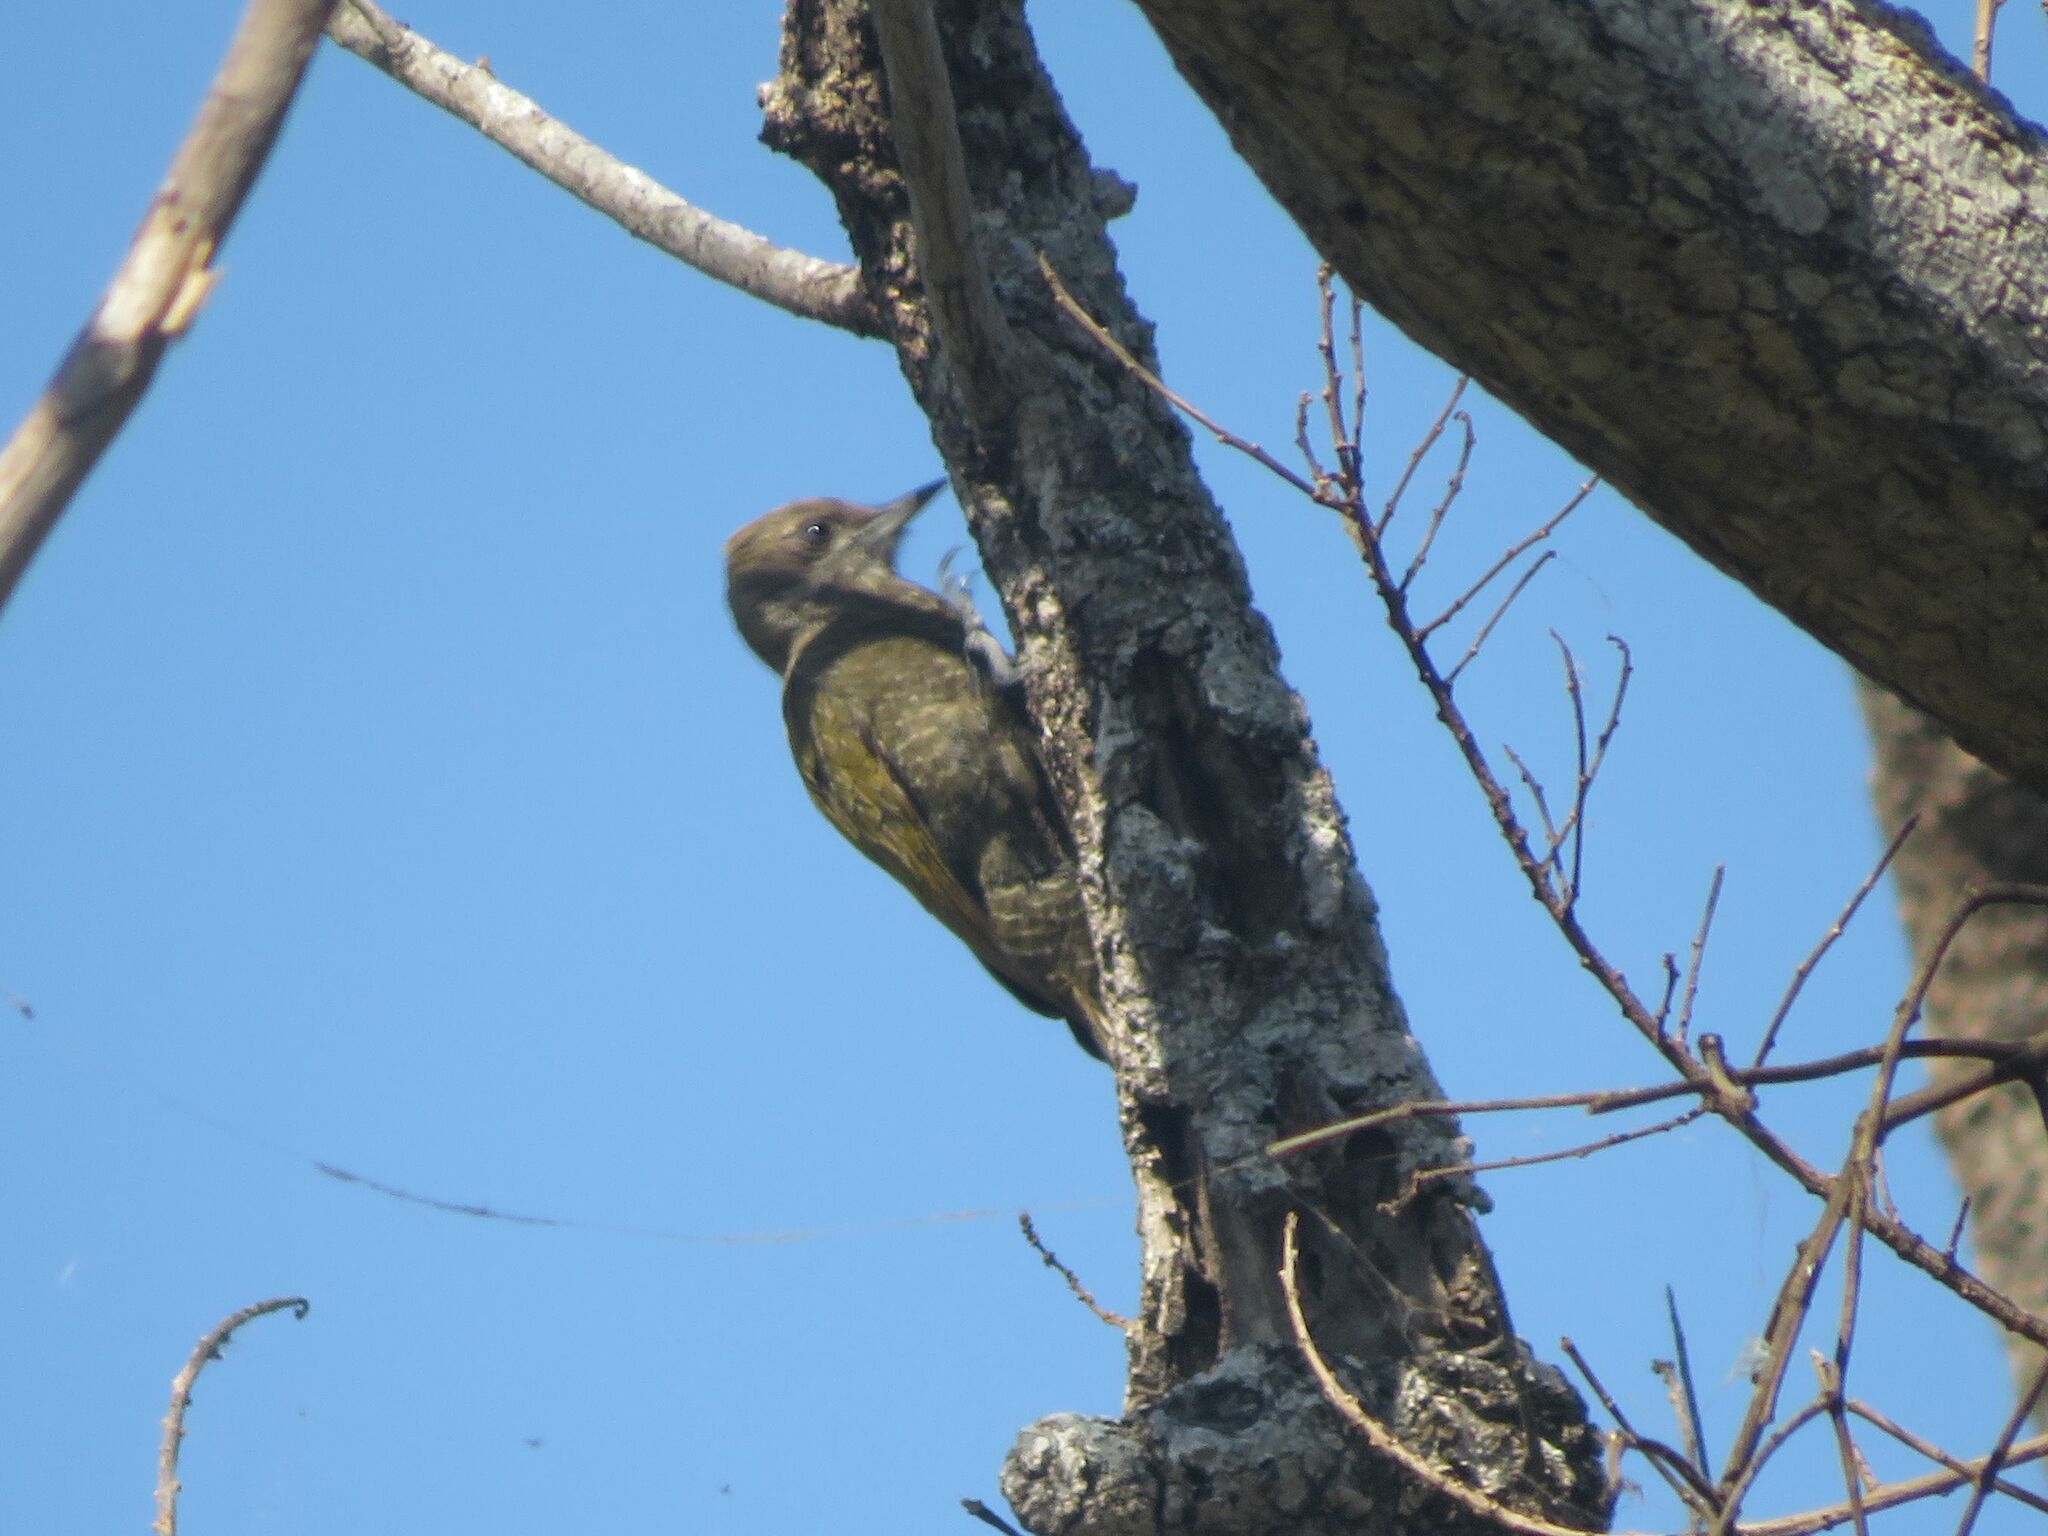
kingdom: Animalia
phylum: Chordata
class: Aves
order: Piciformes
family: Picidae
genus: Veniliornis
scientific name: Veniliornis passerinus
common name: Little woodpecker
